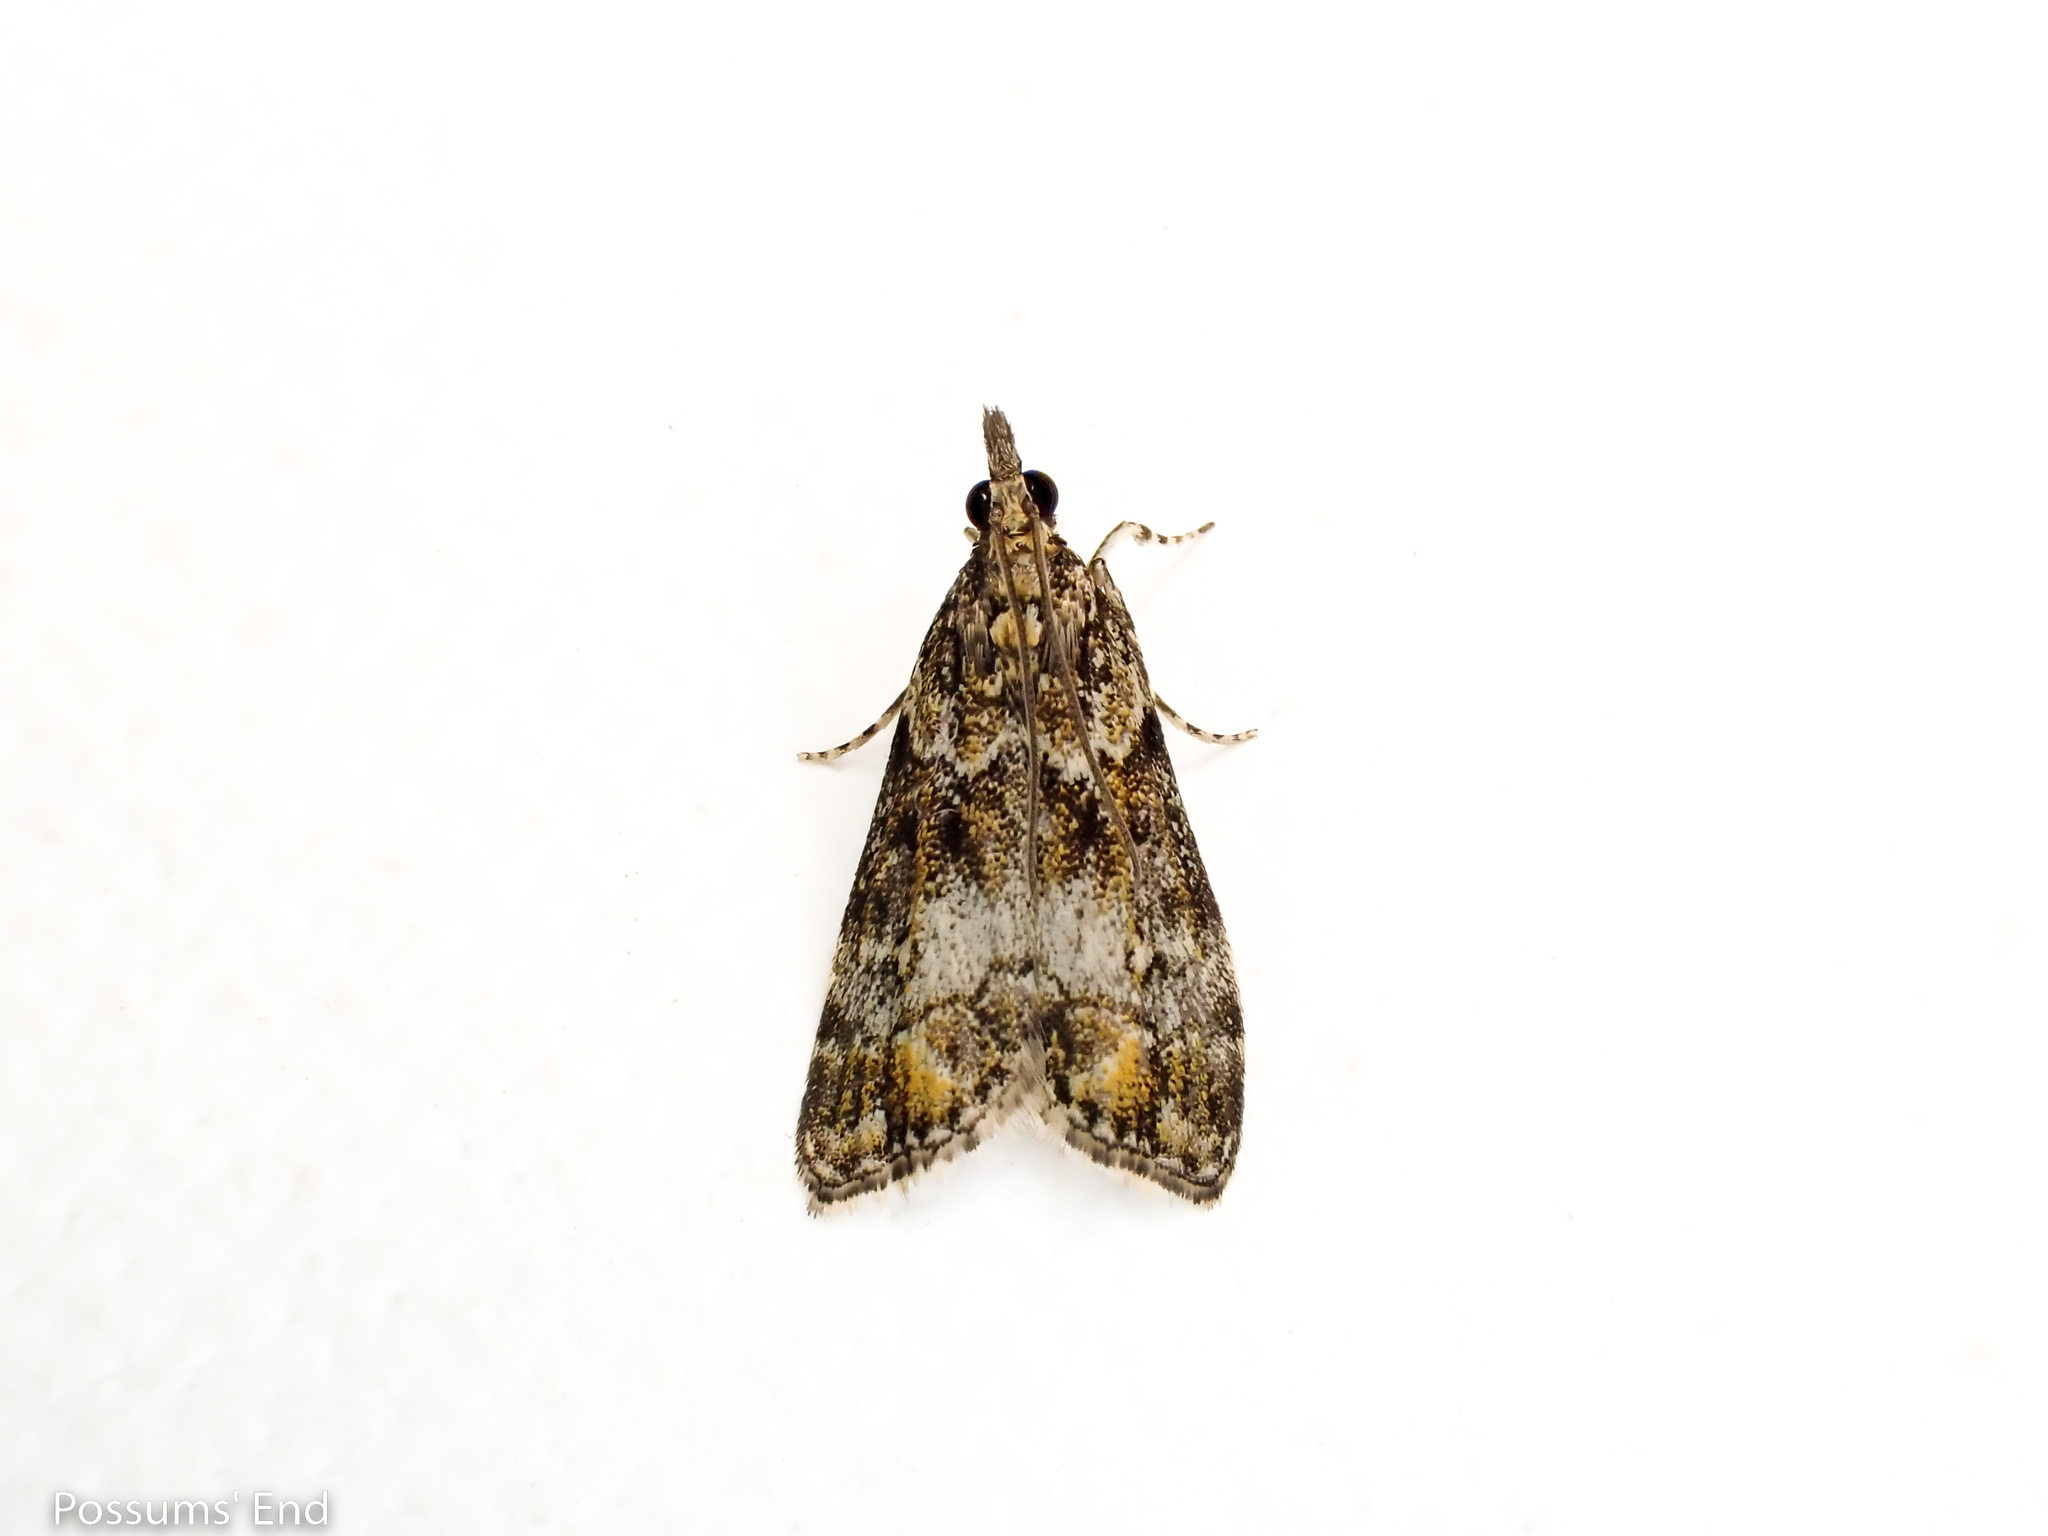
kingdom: Animalia
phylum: Arthropoda
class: Insecta
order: Lepidoptera
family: Crambidae
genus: Eudonia
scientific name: Eudonia minualis
